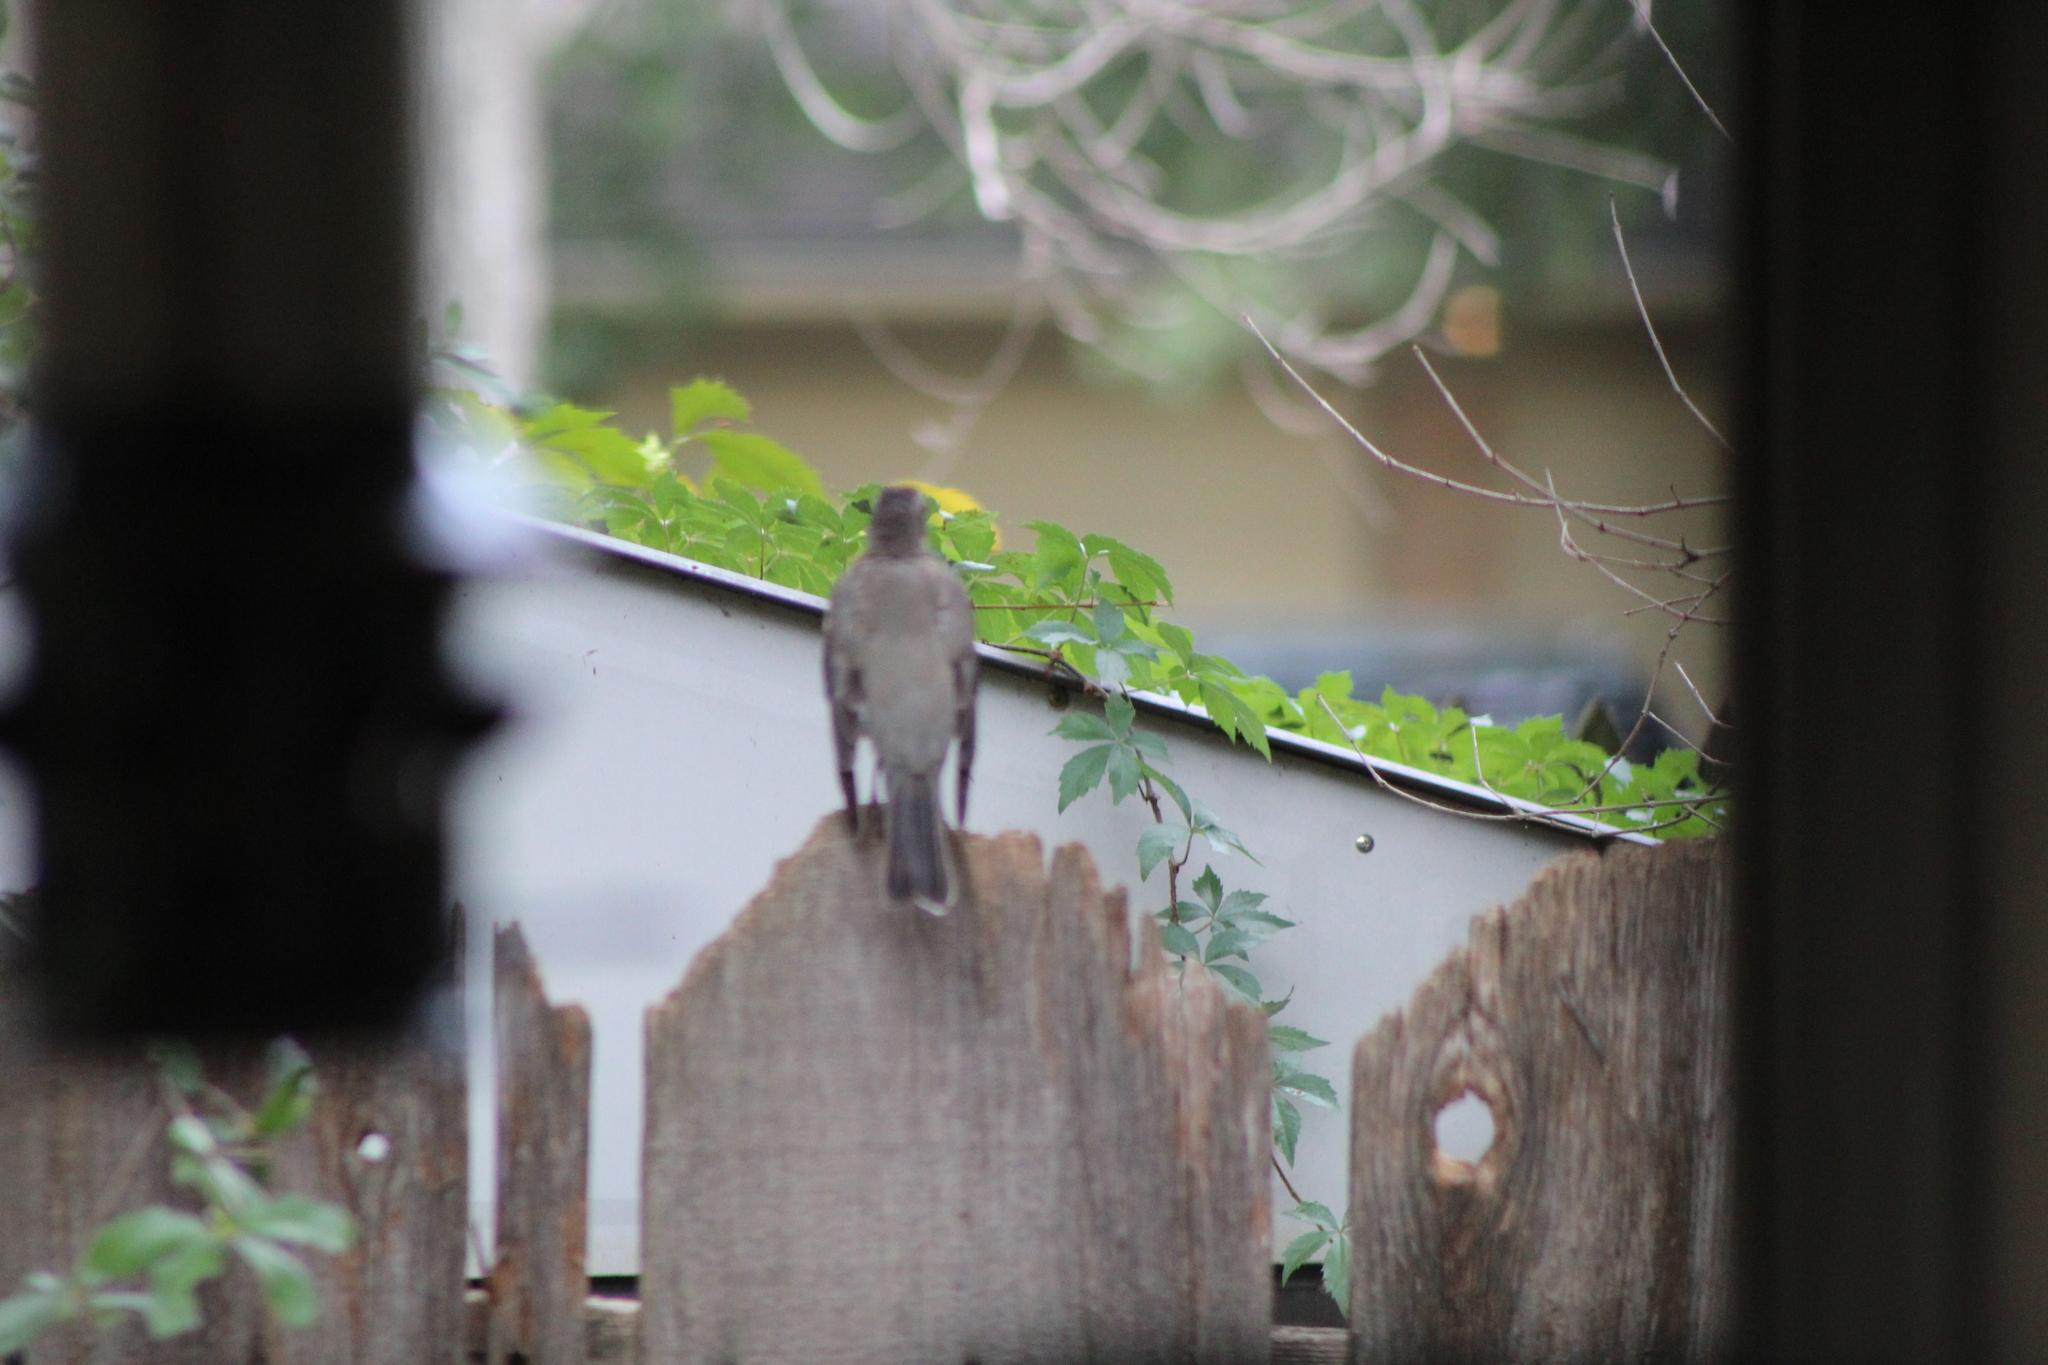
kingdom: Animalia
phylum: Chordata
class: Aves
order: Passeriformes
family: Turdidae
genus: Turdus
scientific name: Turdus migratorius
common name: American robin
